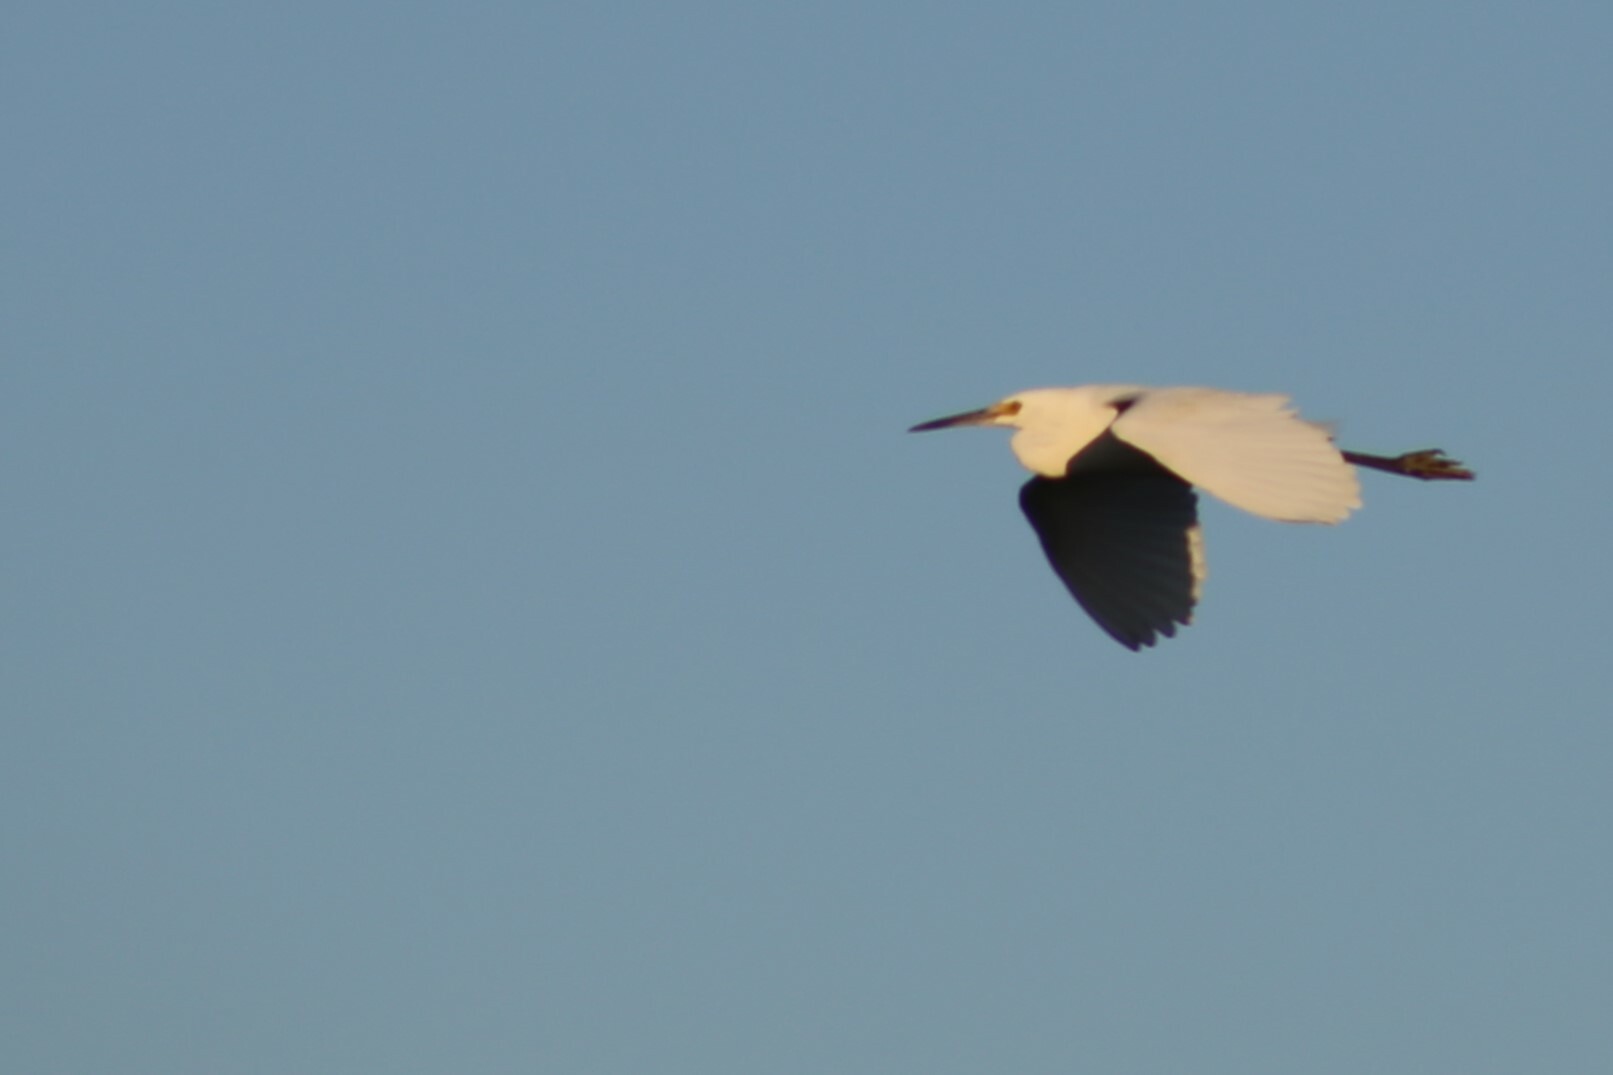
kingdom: Animalia
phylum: Chordata
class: Aves
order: Pelecaniformes
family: Ardeidae
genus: Egretta
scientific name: Egretta garzetta
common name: Little egret
